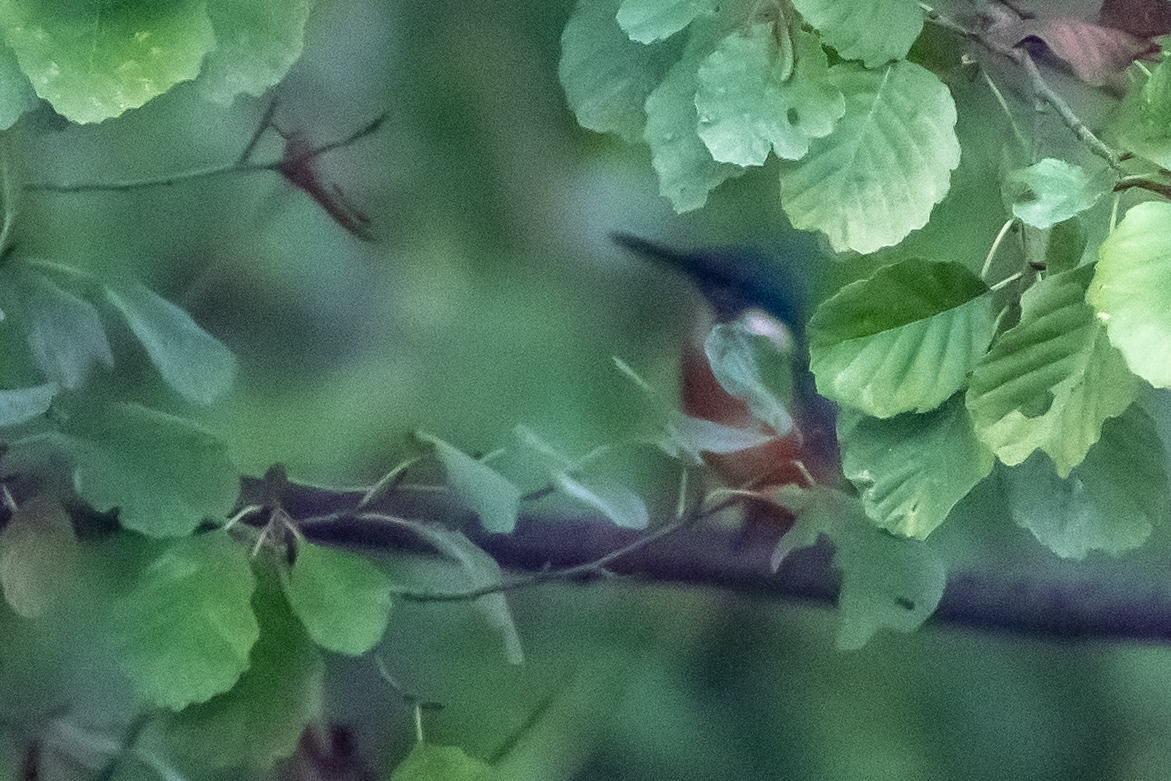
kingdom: Animalia
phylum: Chordata
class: Aves
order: Coraciiformes
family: Alcedinidae
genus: Alcedo
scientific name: Alcedo atthis
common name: Common kingfisher
